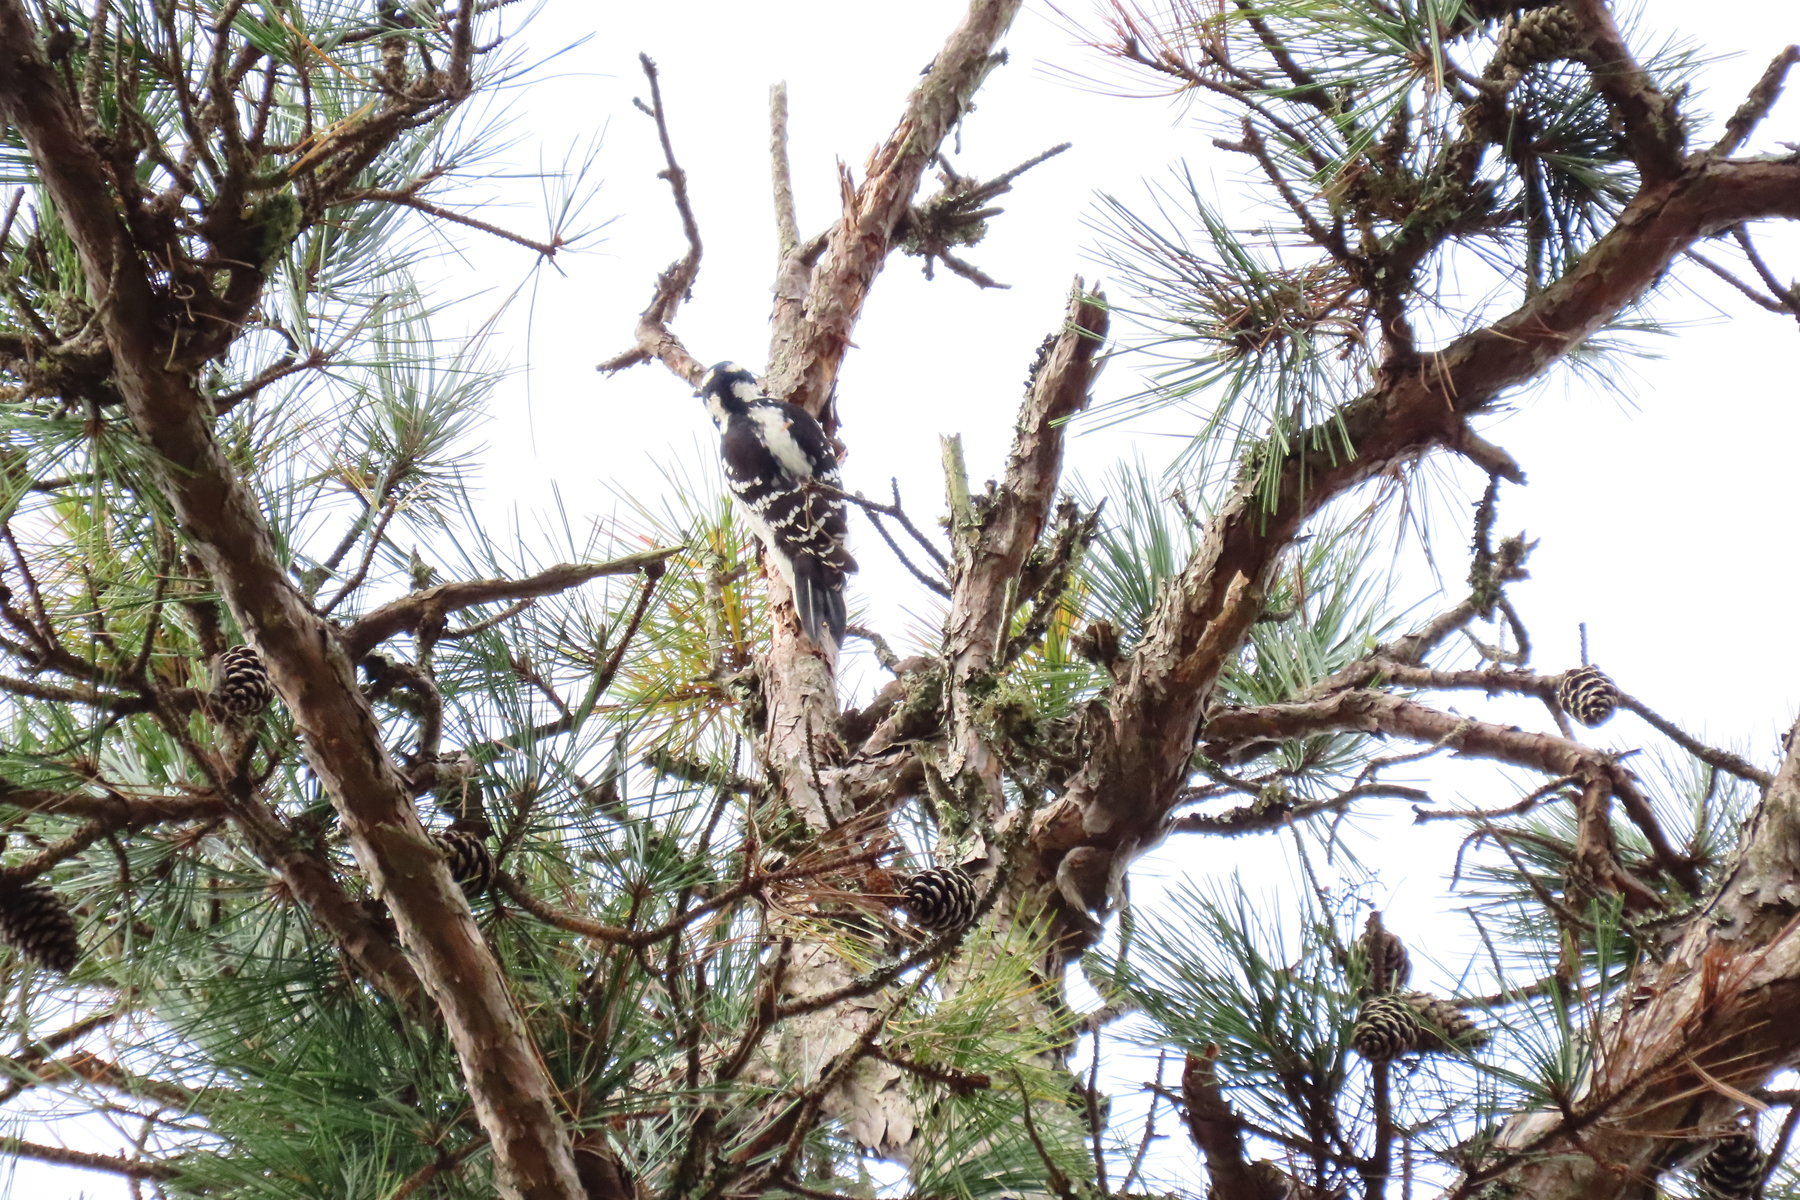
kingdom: Animalia
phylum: Chordata
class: Aves
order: Piciformes
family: Picidae
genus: Leuconotopicus
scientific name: Leuconotopicus villosus
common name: Hairy woodpecker
